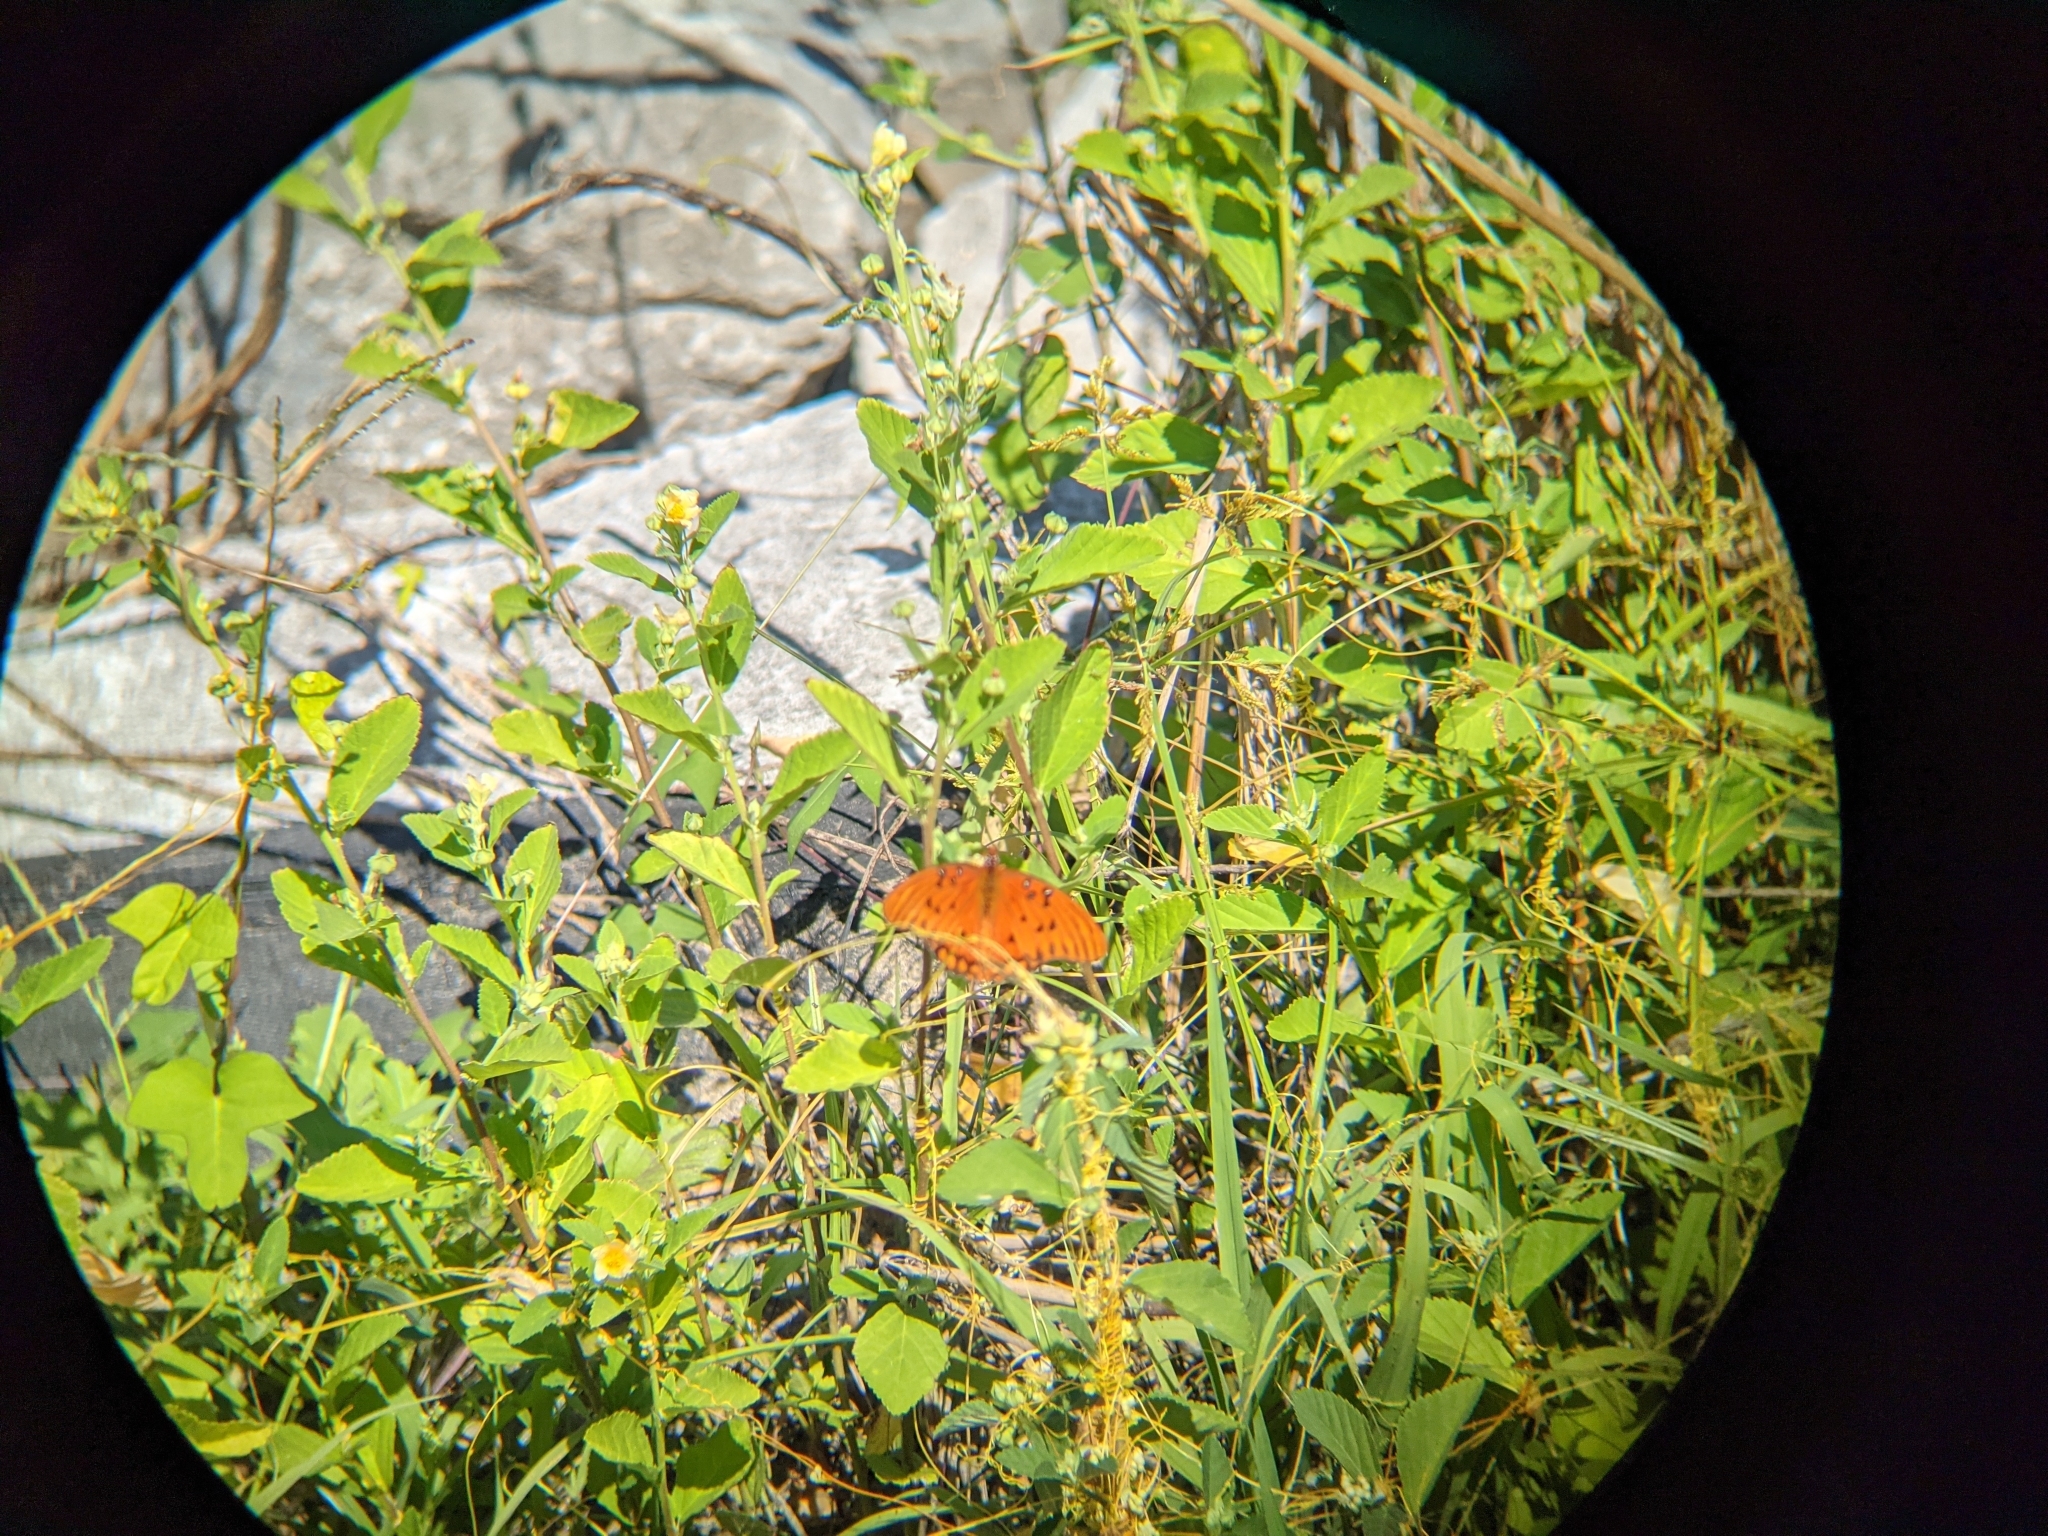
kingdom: Animalia
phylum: Arthropoda
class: Insecta
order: Lepidoptera
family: Nymphalidae
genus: Dione
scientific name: Dione vanillae
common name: Gulf fritillary
